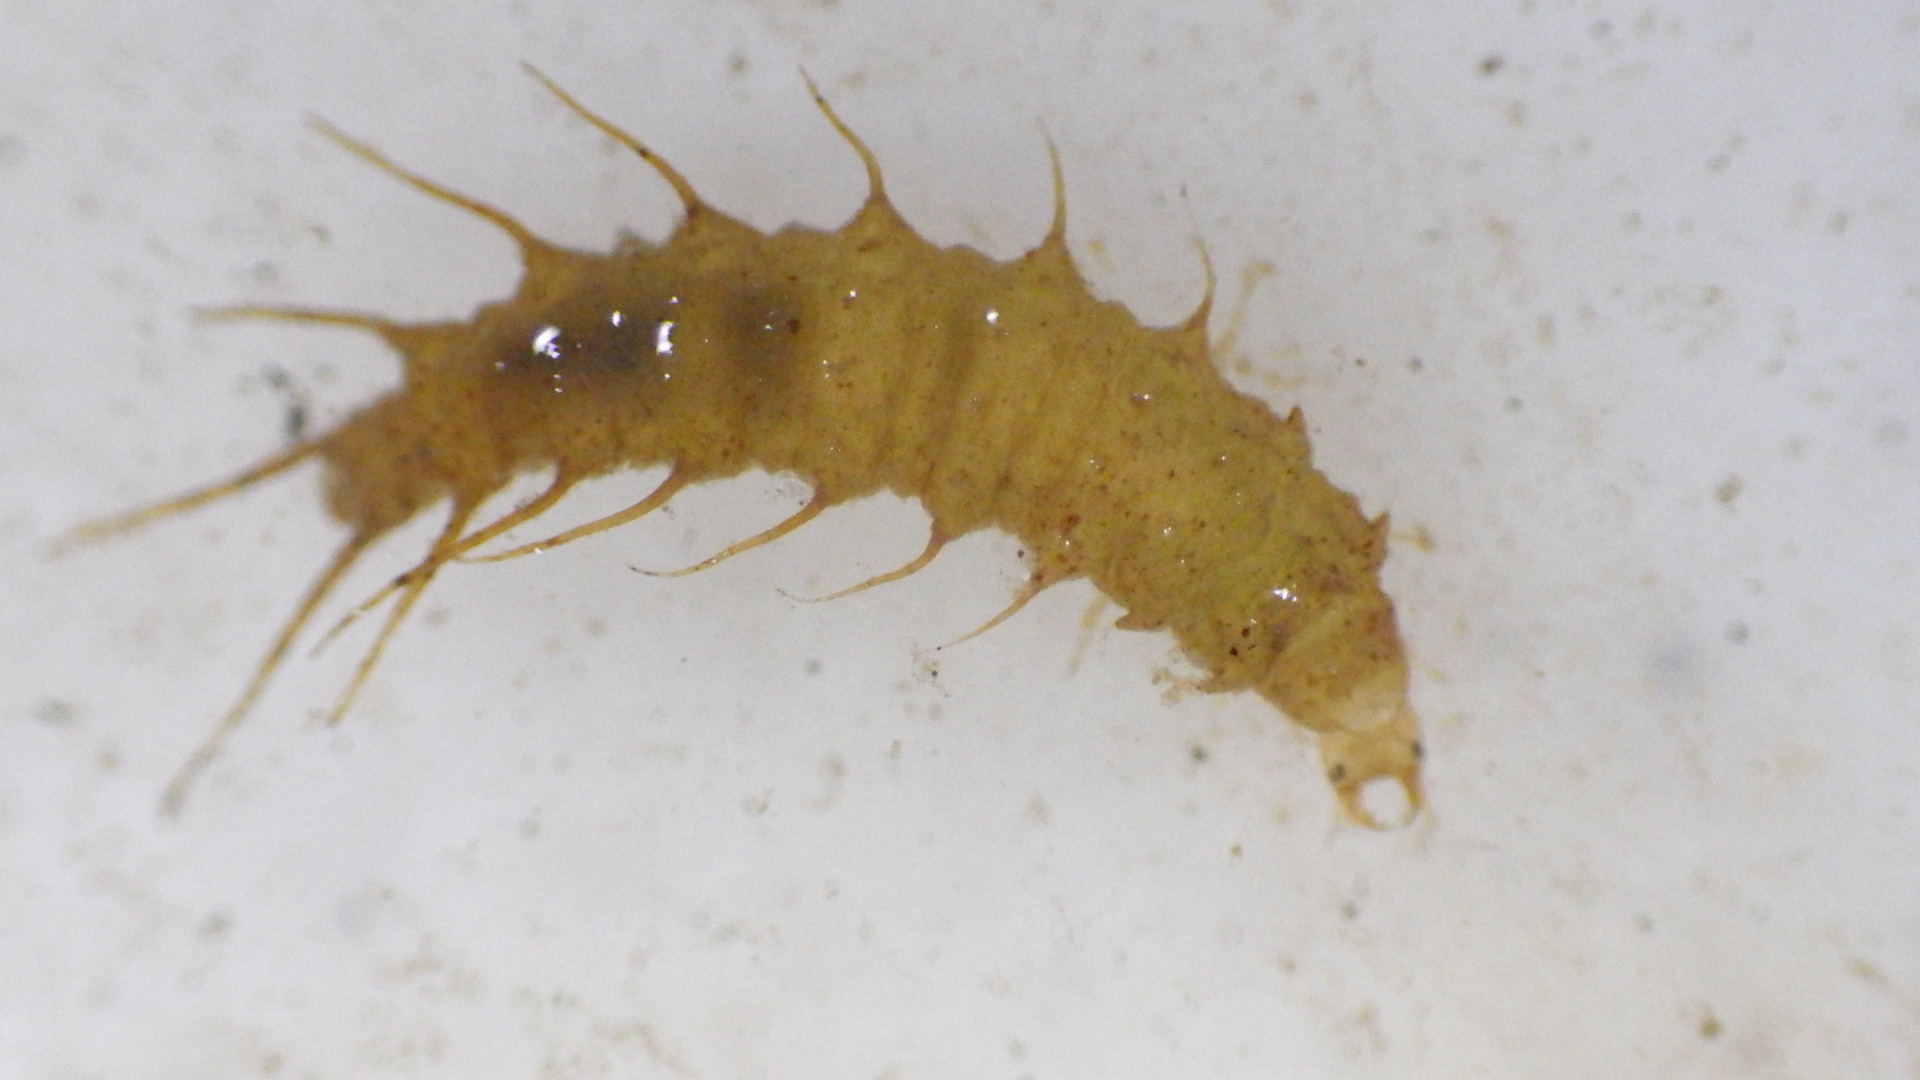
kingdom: Animalia
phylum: Arthropoda
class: Insecta
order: Coleoptera
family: Hydrophilidae
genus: Berosus
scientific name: Berosus
